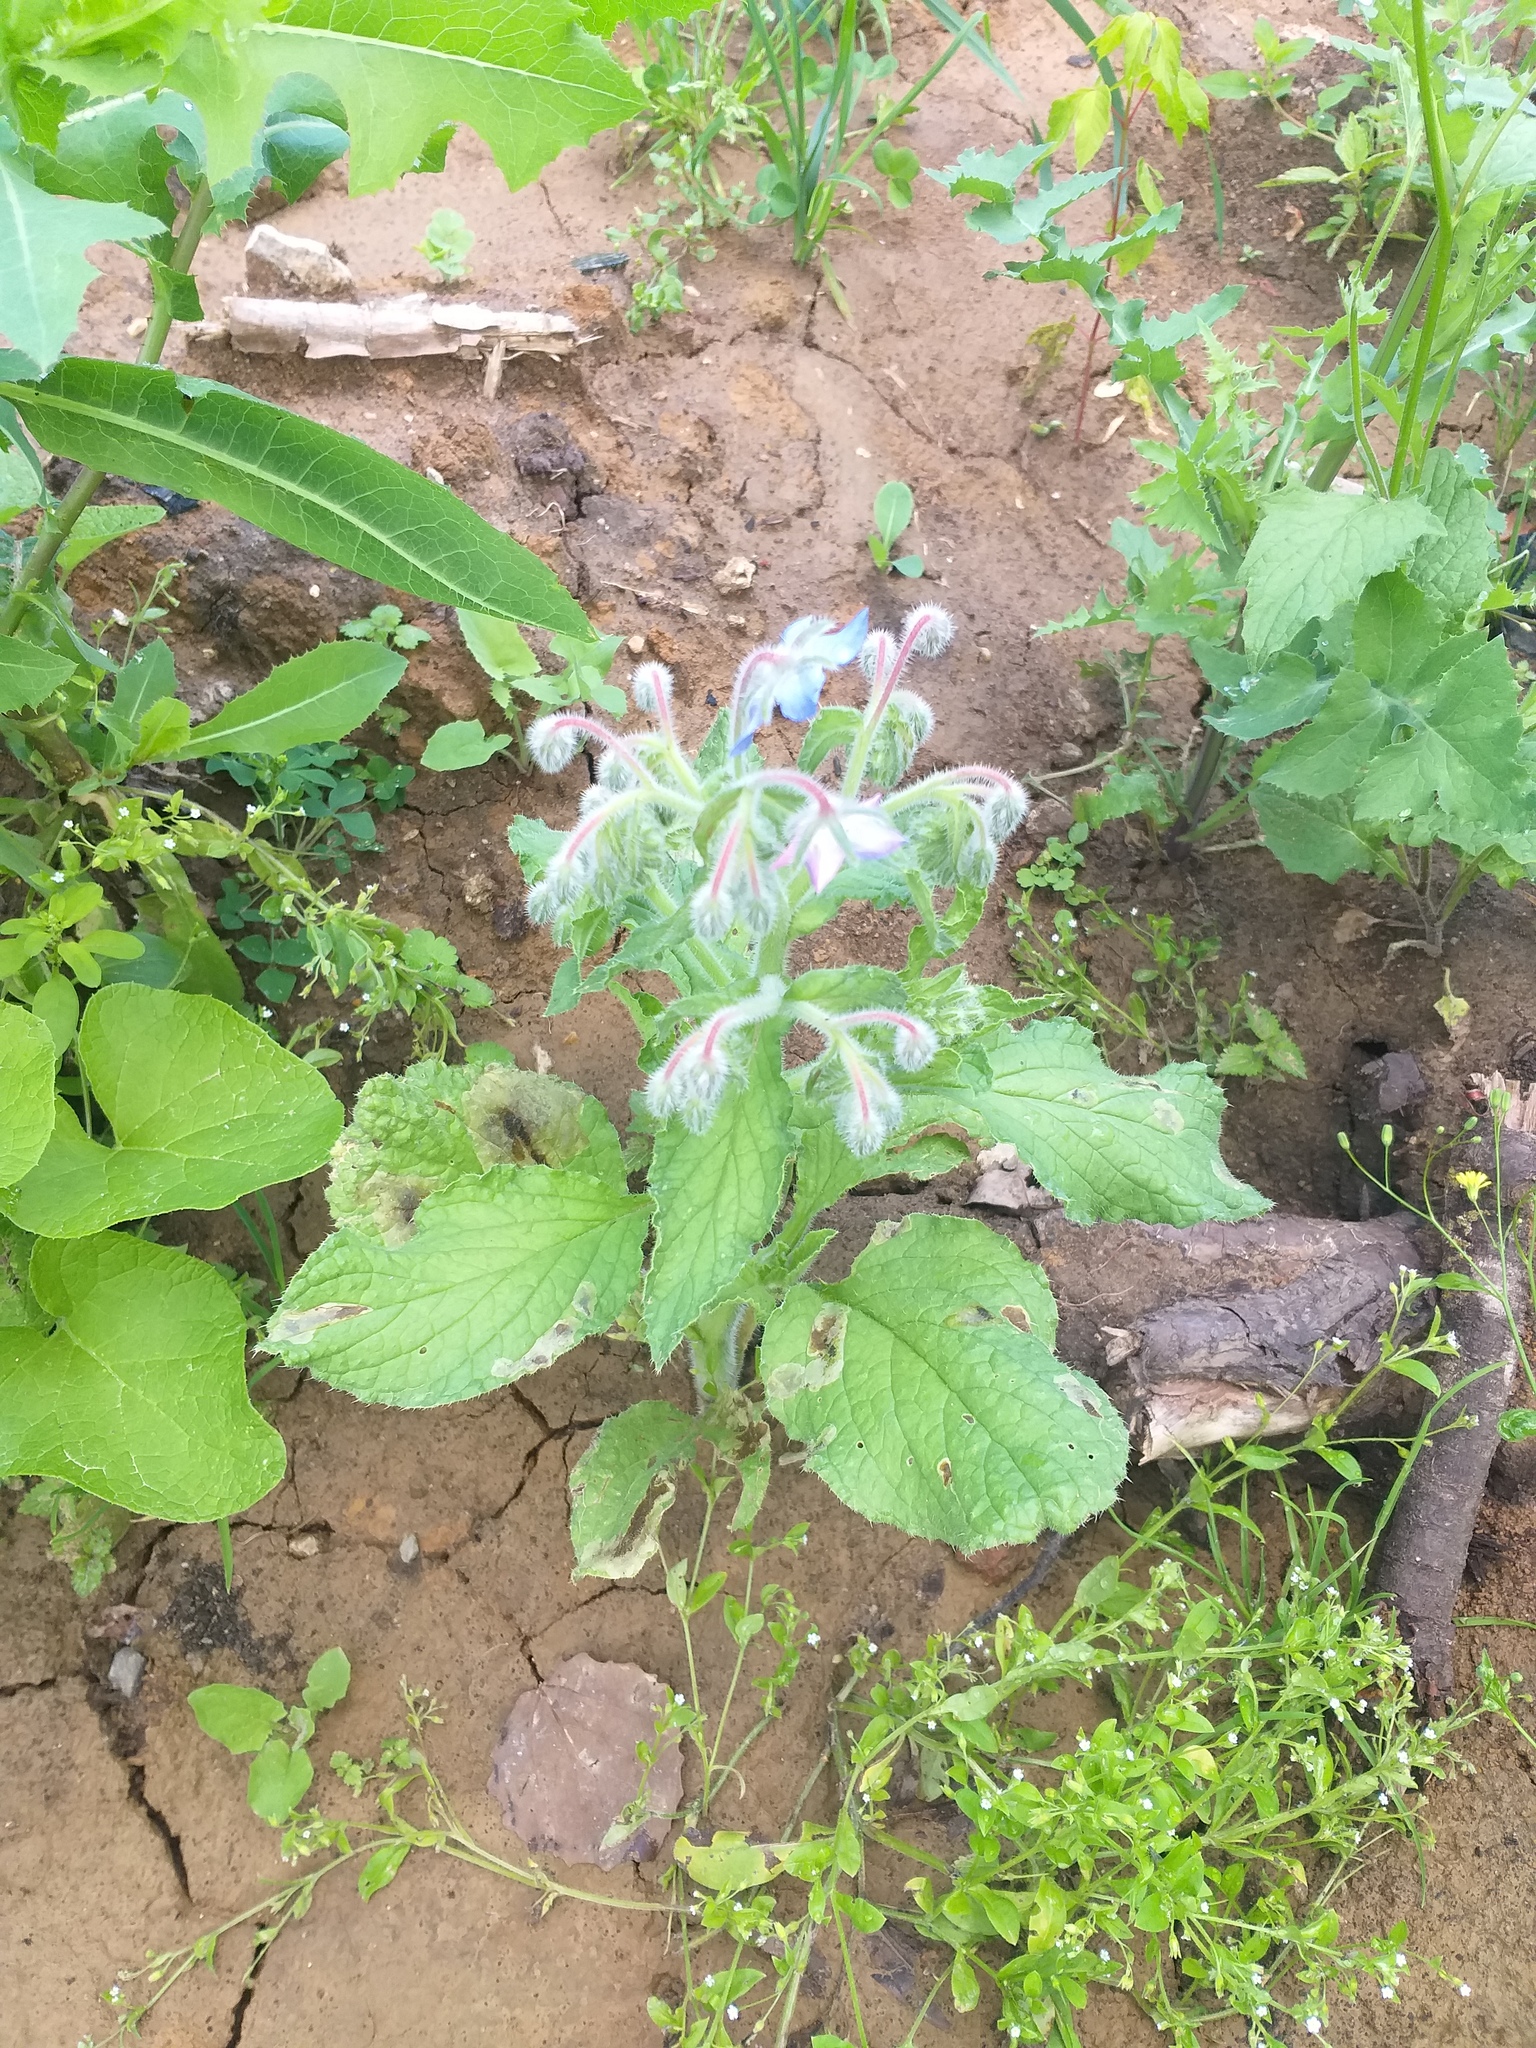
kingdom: Plantae
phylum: Tracheophyta
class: Magnoliopsida
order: Boraginales
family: Boraginaceae
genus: Borago
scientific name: Borago officinalis
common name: Borage
